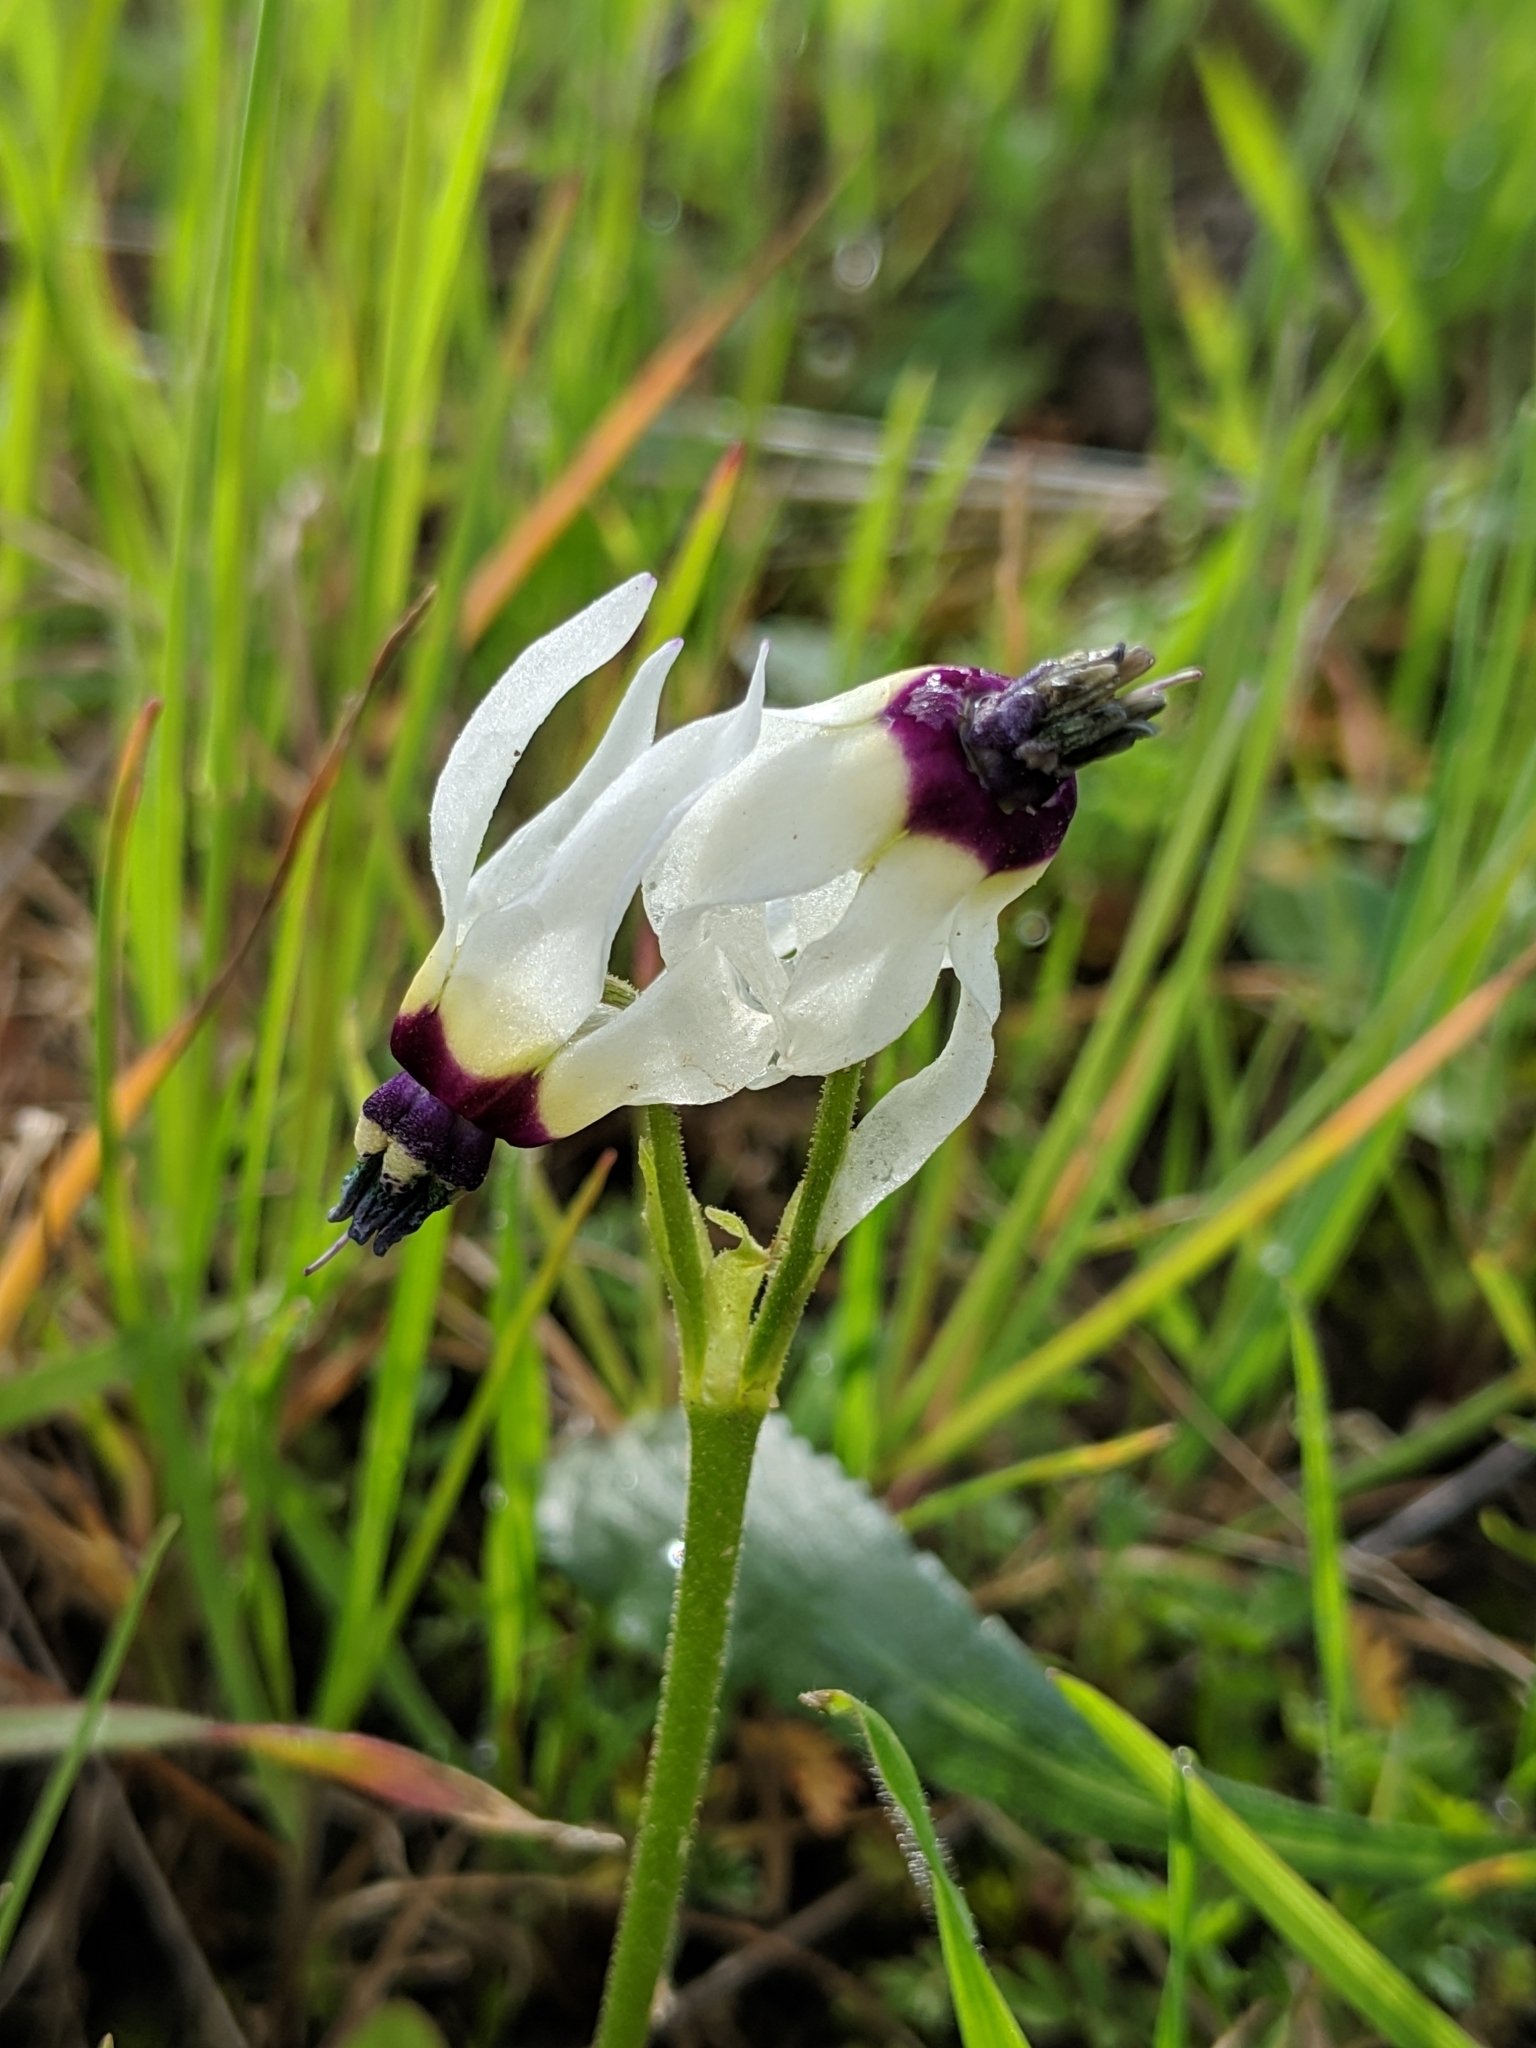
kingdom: Plantae
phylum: Tracheophyta
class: Magnoliopsida
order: Ericales
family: Primulaceae
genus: Dodecatheon
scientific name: Dodecatheon clevelandii
